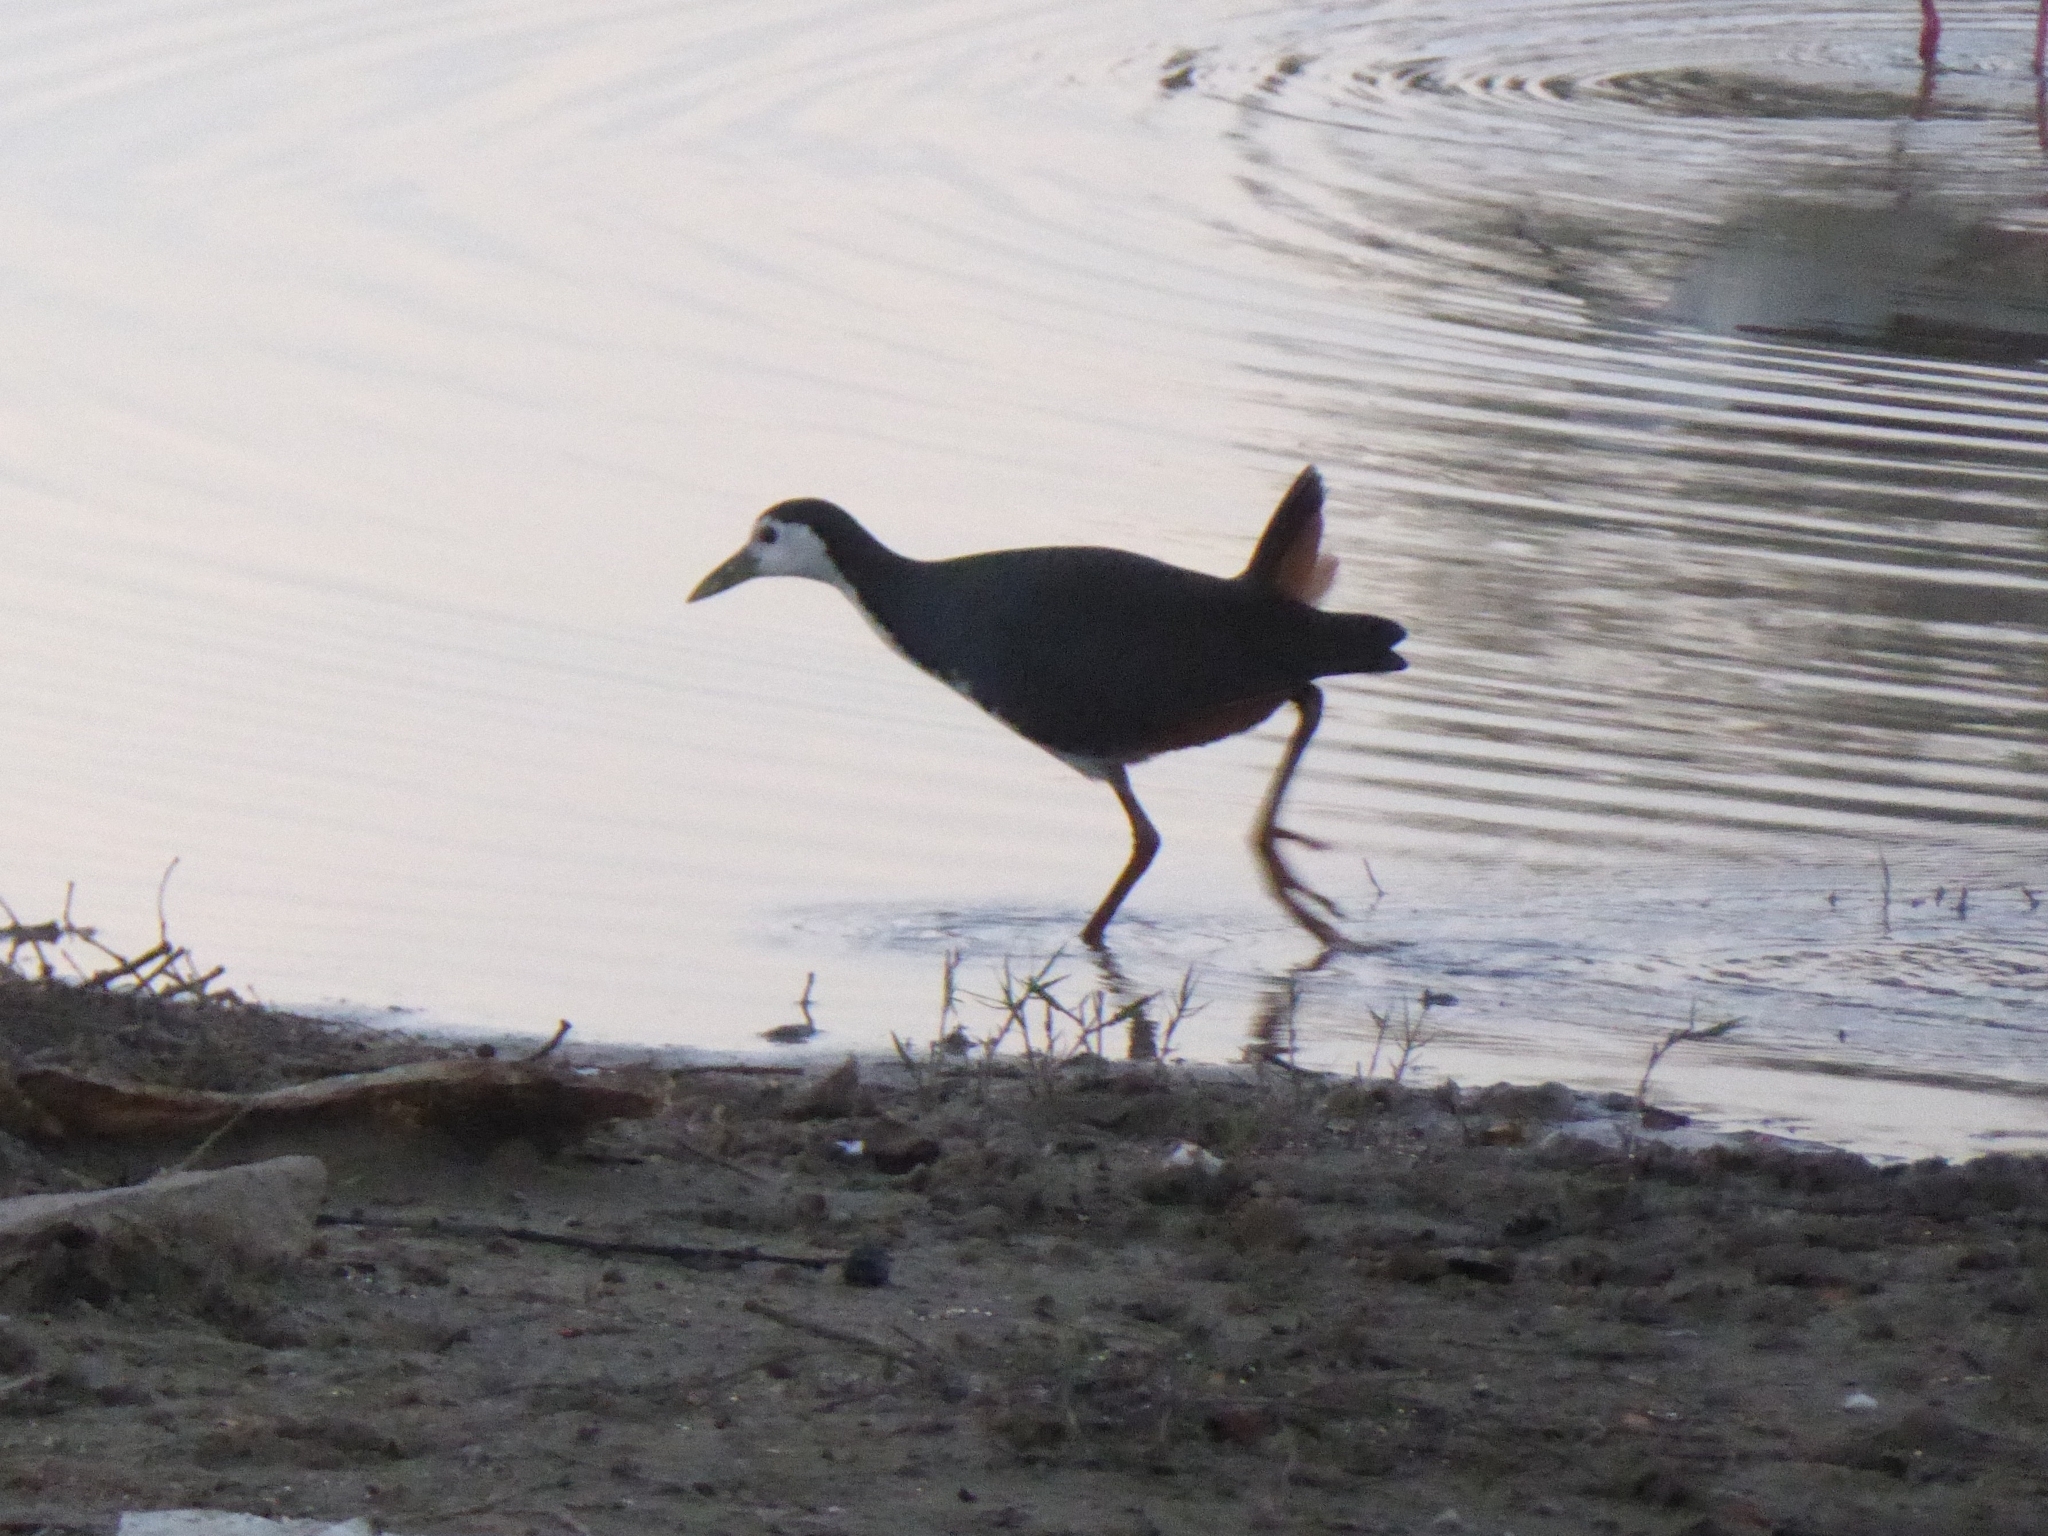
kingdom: Animalia
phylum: Chordata
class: Aves
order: Gruiformes
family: Rallidae
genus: Amaurornis
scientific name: Amaurornis phoenicurus
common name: White-breasted waterhen
